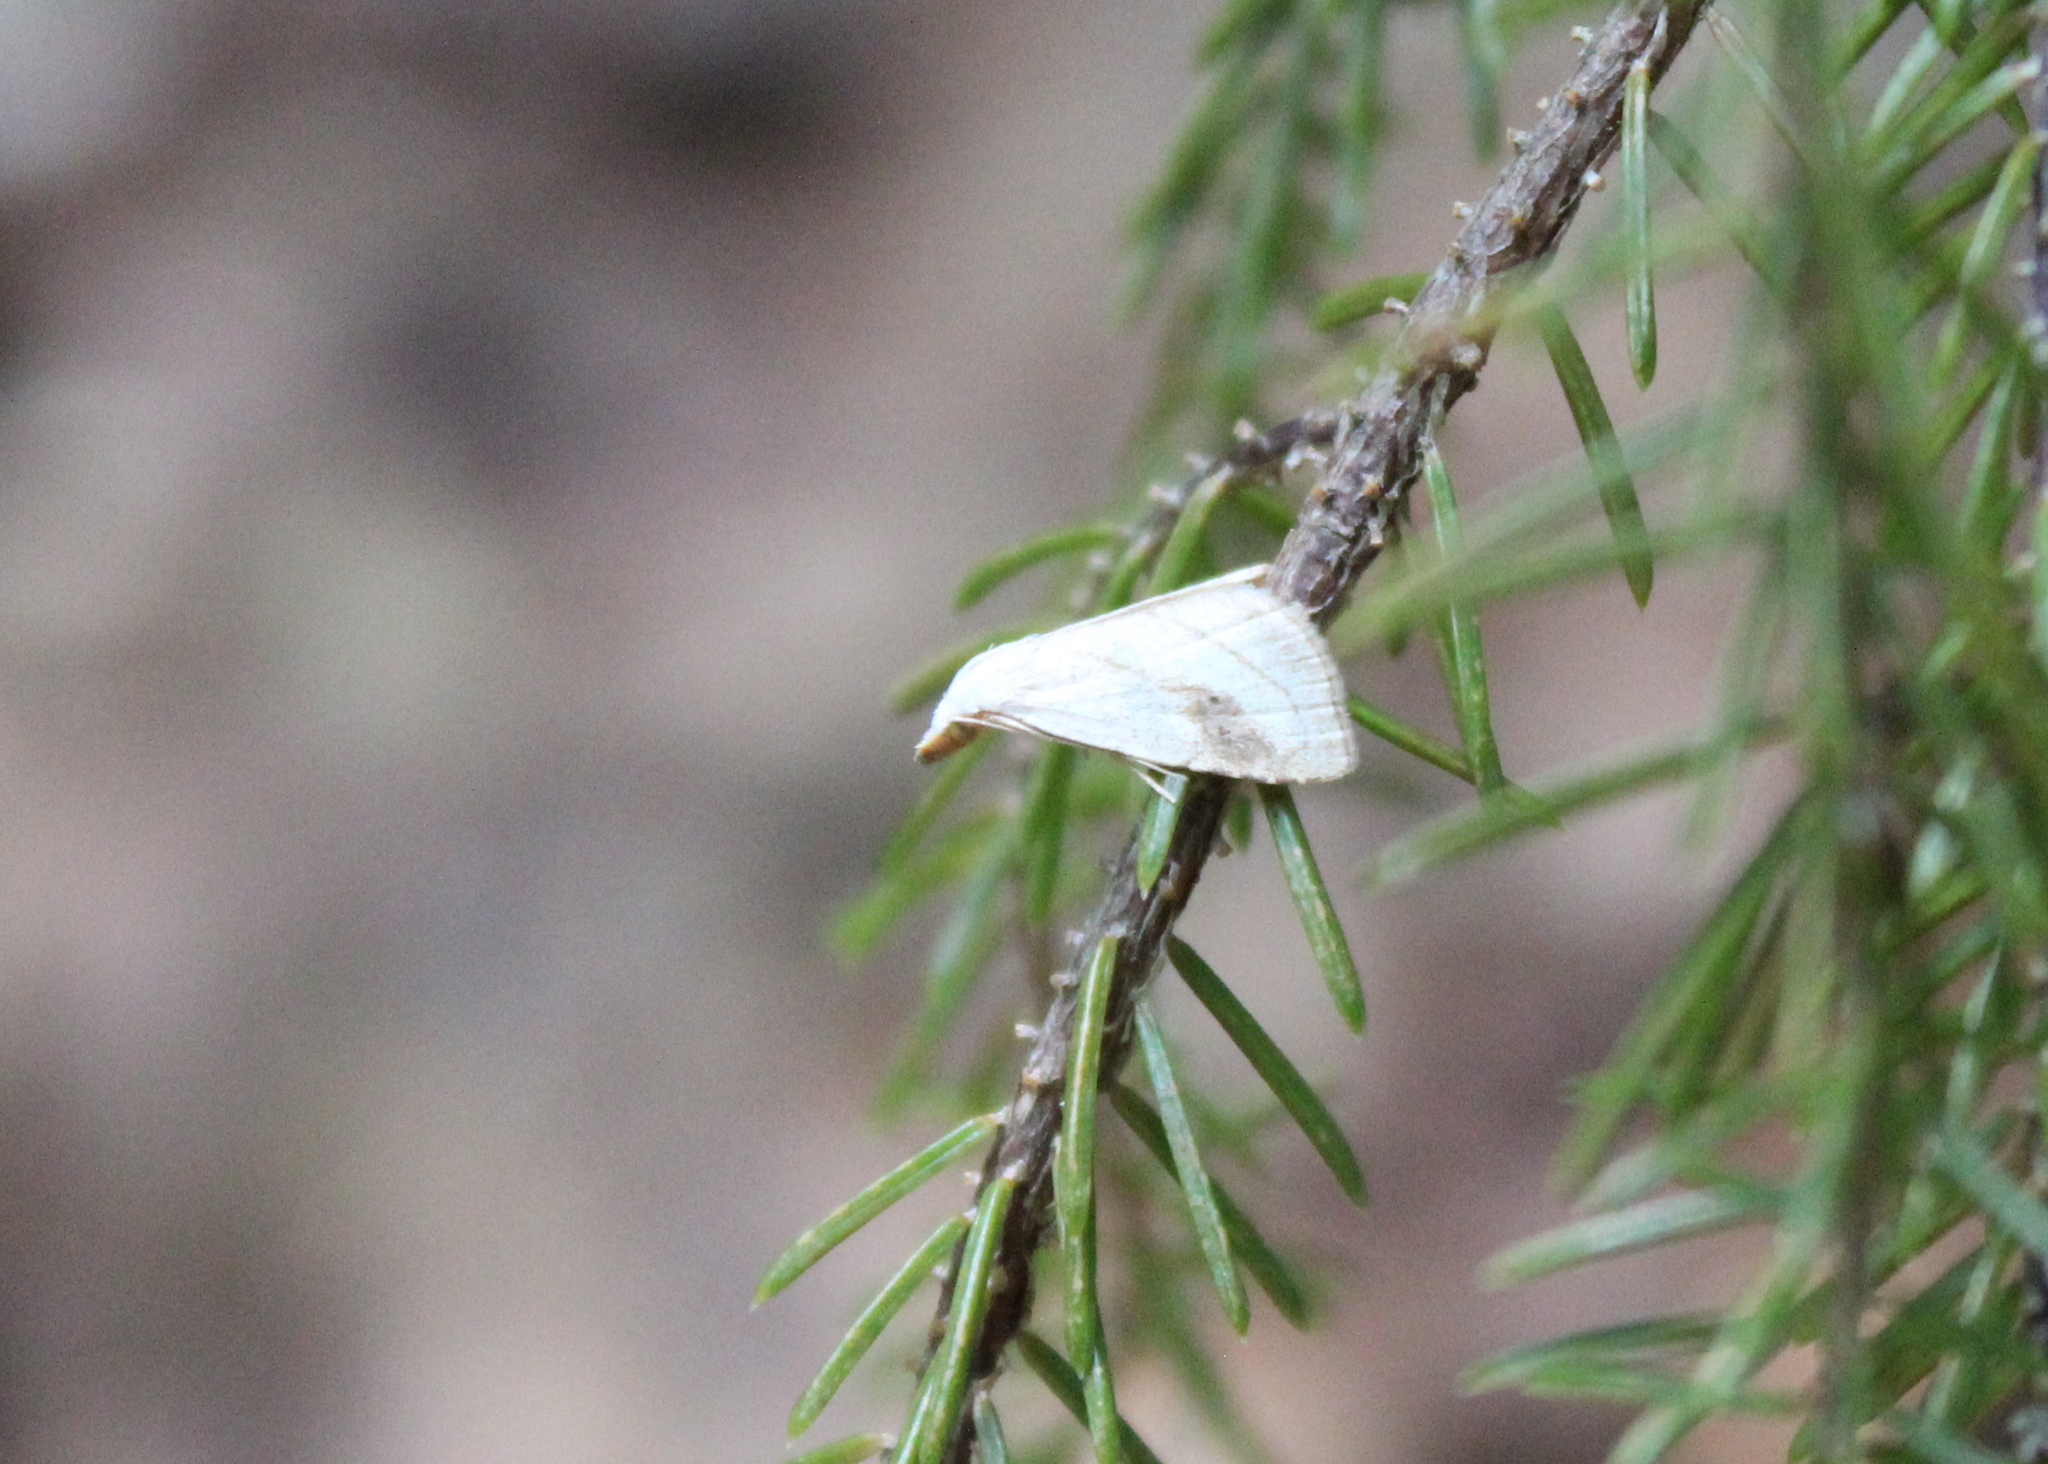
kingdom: Animalia
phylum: Arthropoda
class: Insecta
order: Lepidoptera
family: Erebidae
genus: Rivula
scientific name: Rivula propinqualis
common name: Spotted grass moth
